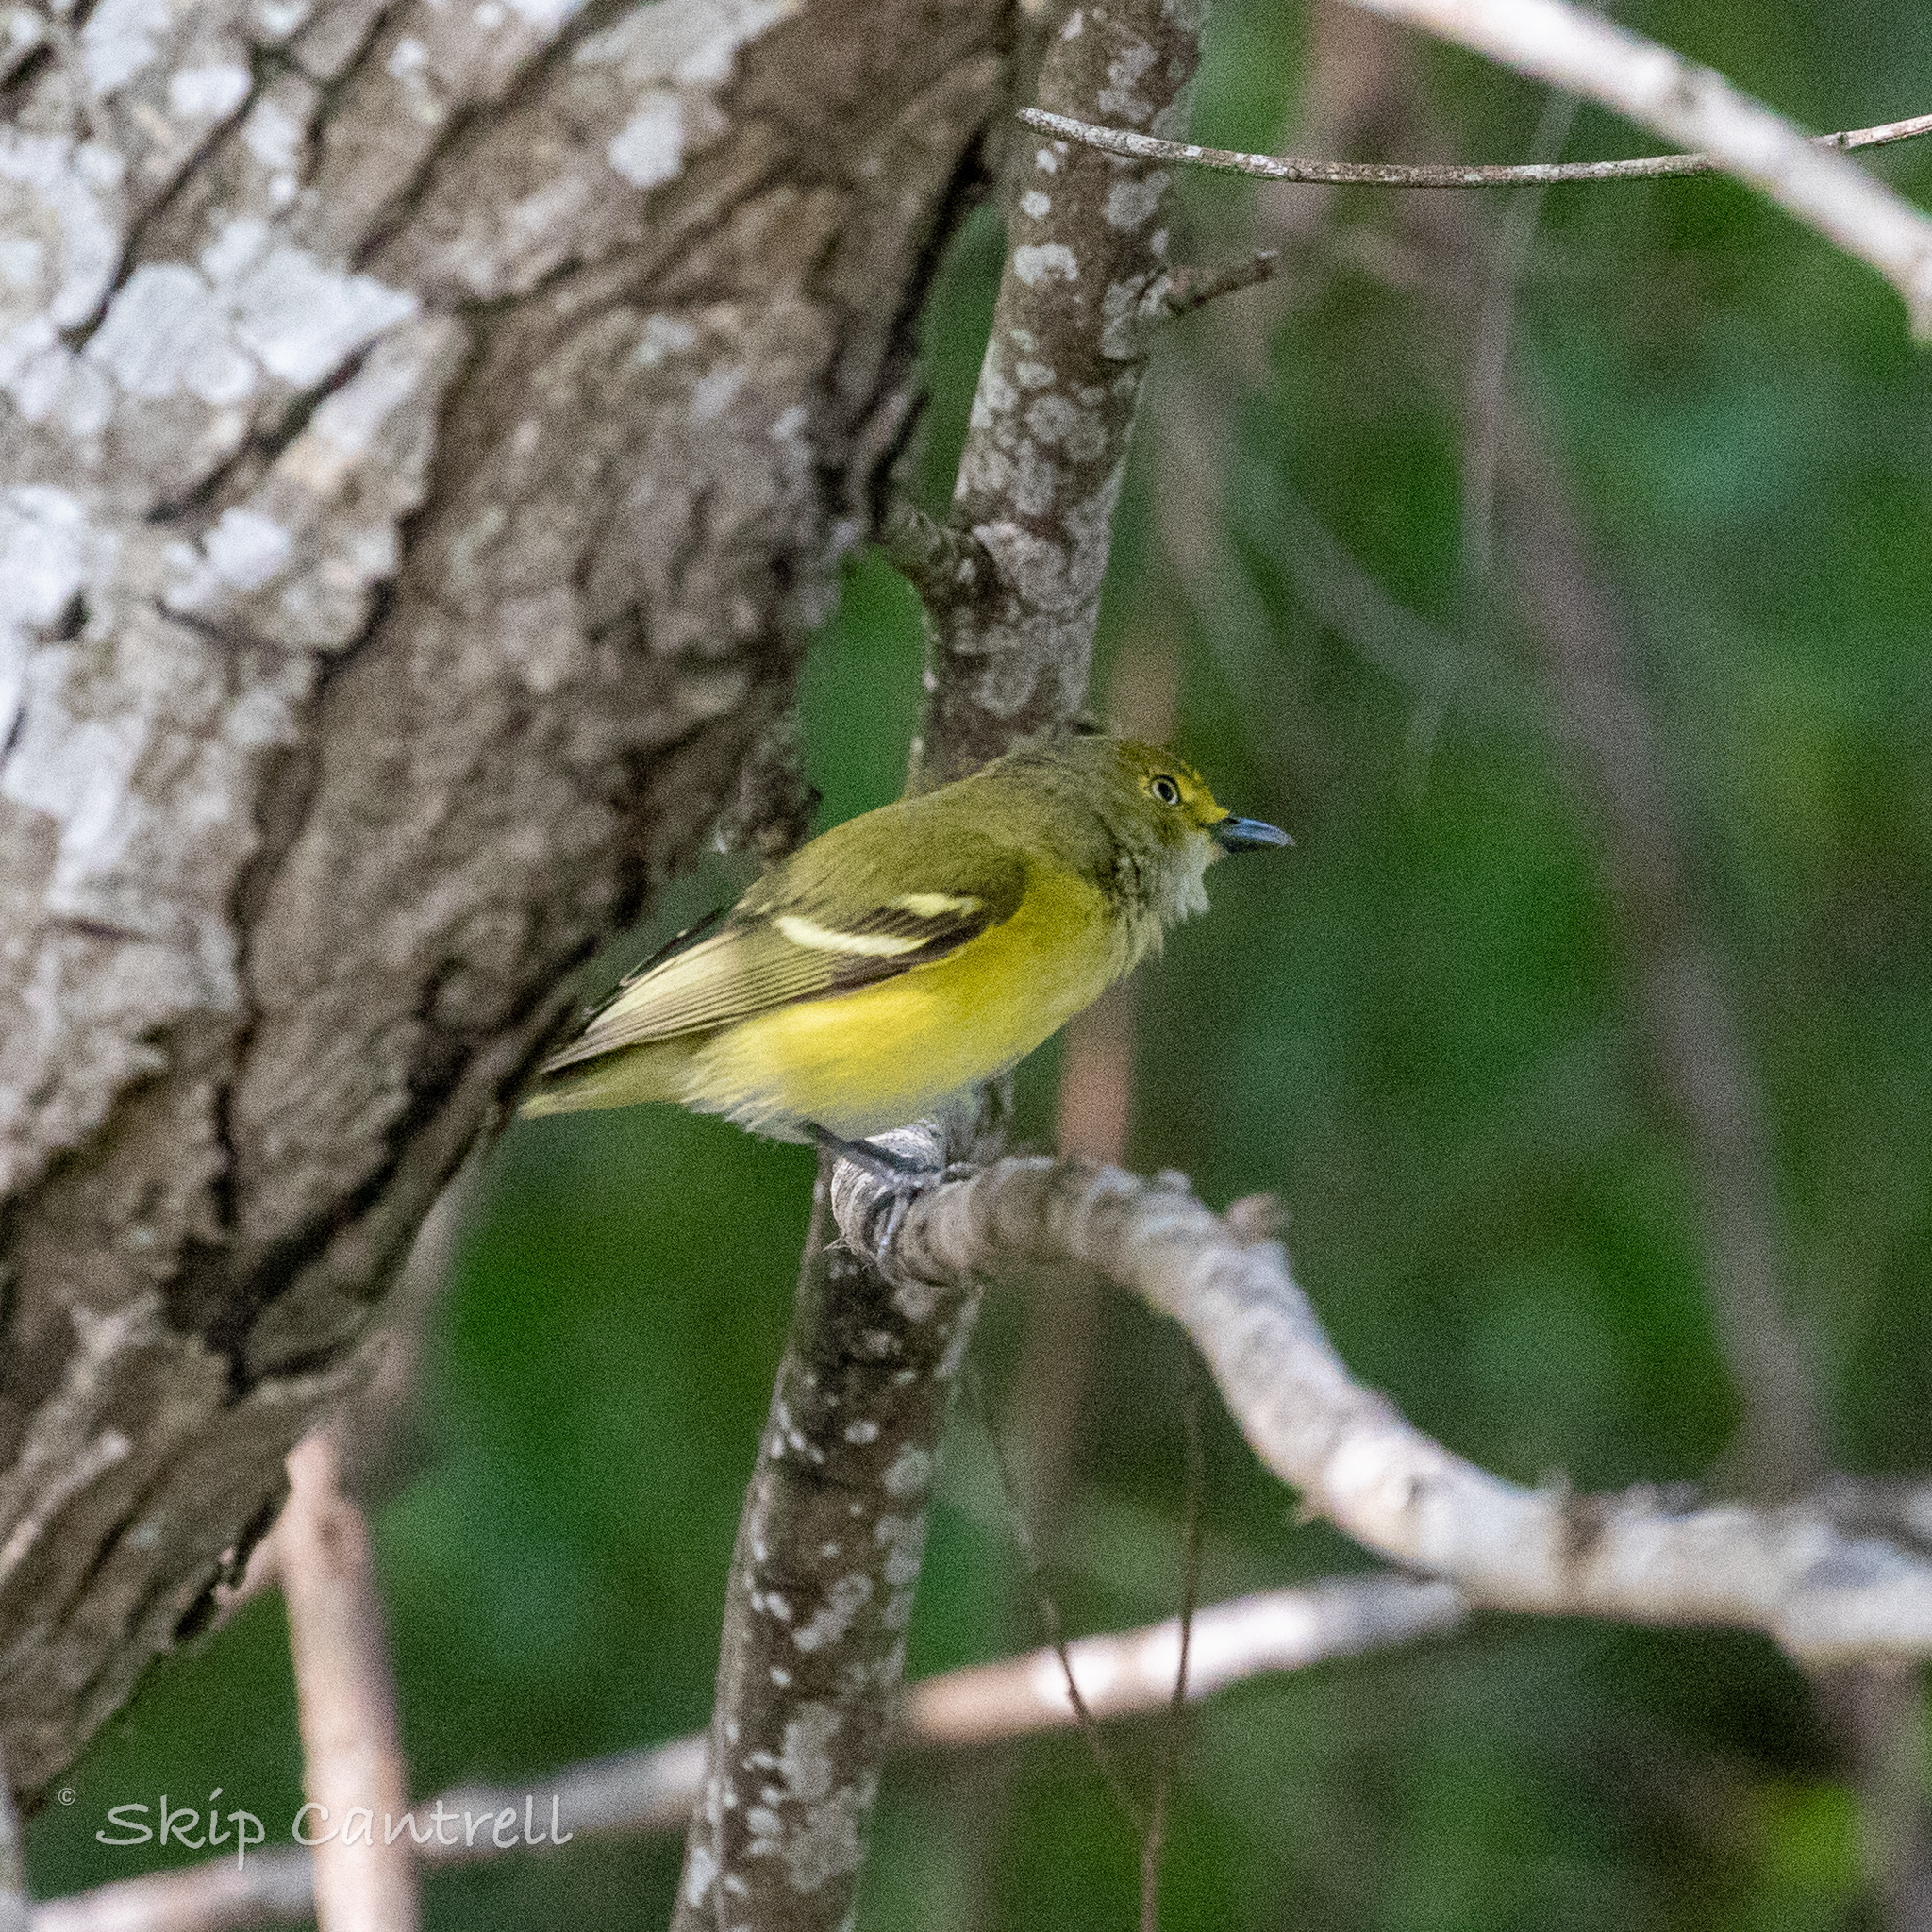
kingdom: Animalia
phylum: Chordata
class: Aves
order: Passeriformes
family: Vireonidae
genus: Vireo
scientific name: Vireo griseus
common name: White-eyed vireo
